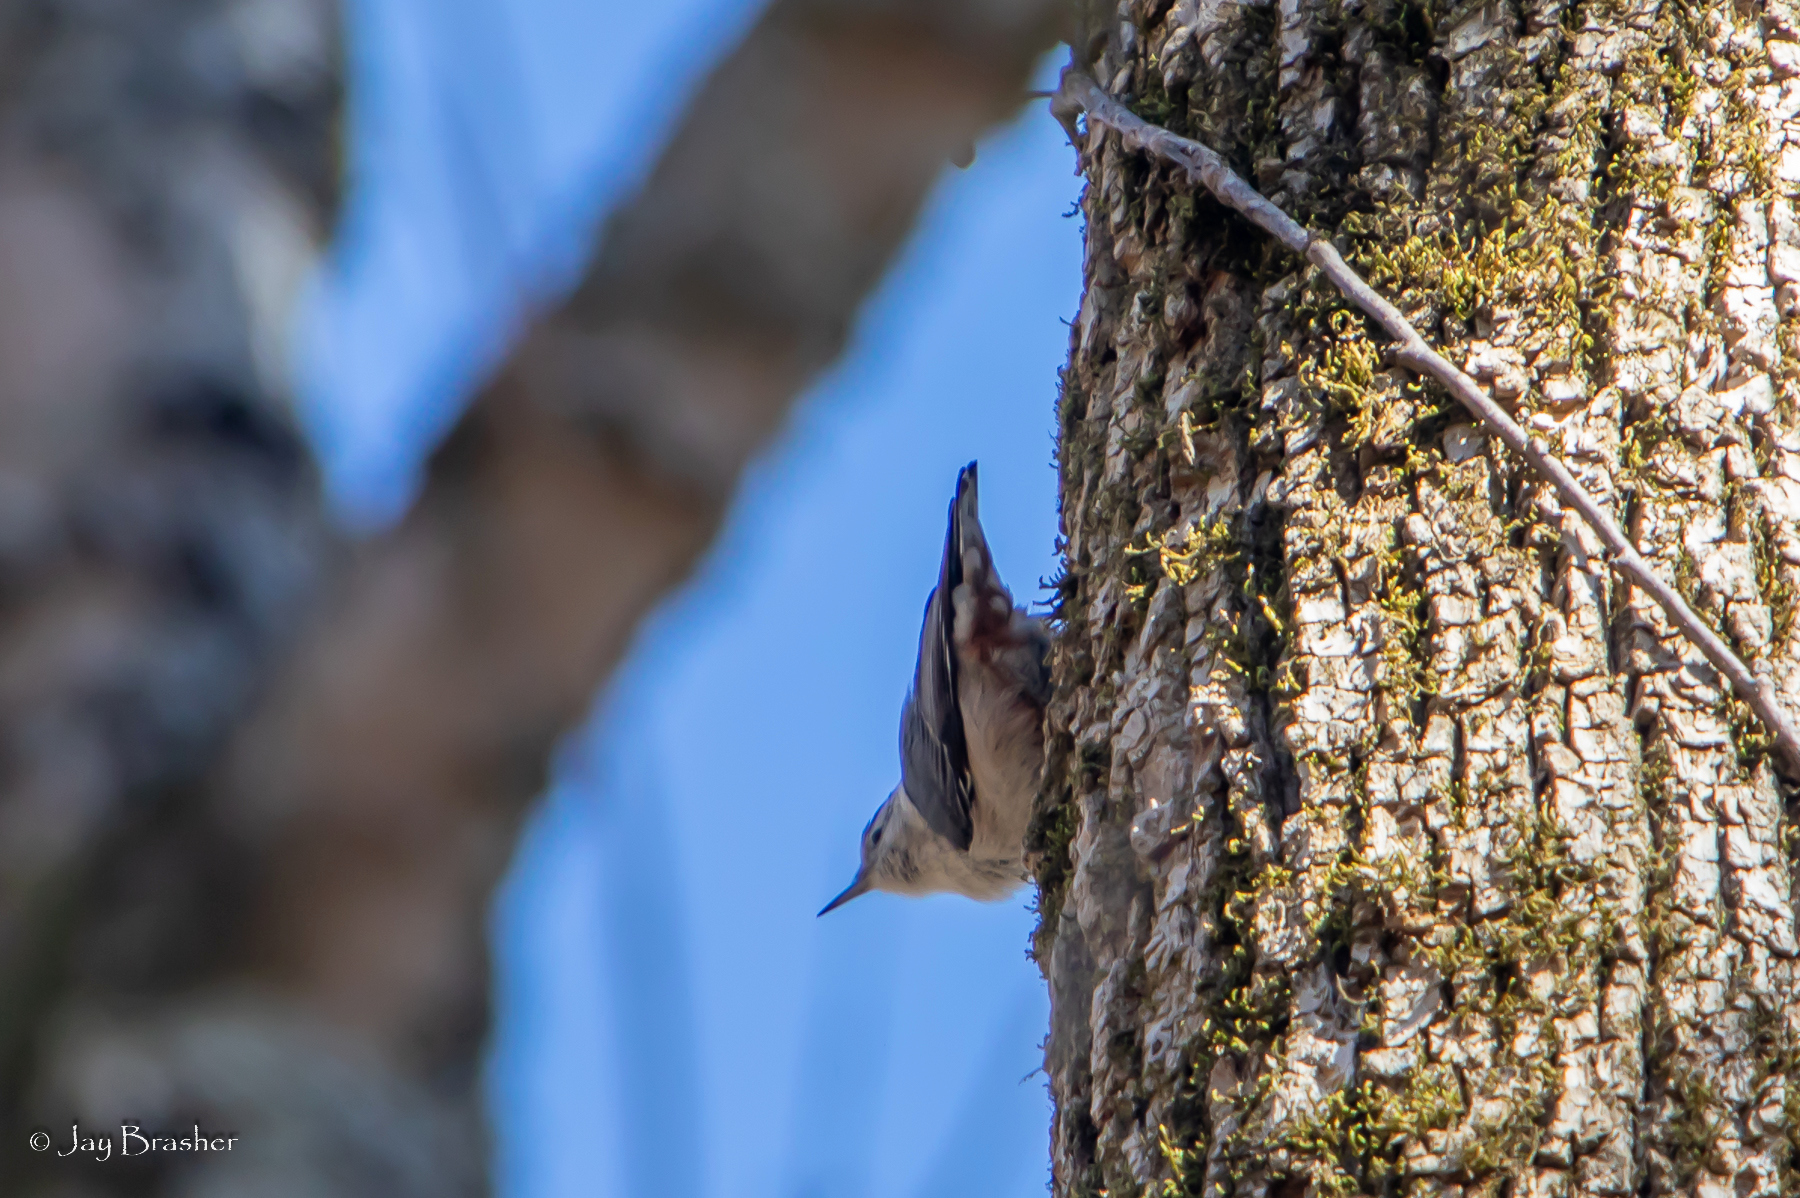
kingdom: Animalia
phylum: Chordata
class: Aves
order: Passeriformes
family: Sittidae
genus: Sitta
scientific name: Sitta carolinensis
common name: White-breasted nuthatch
